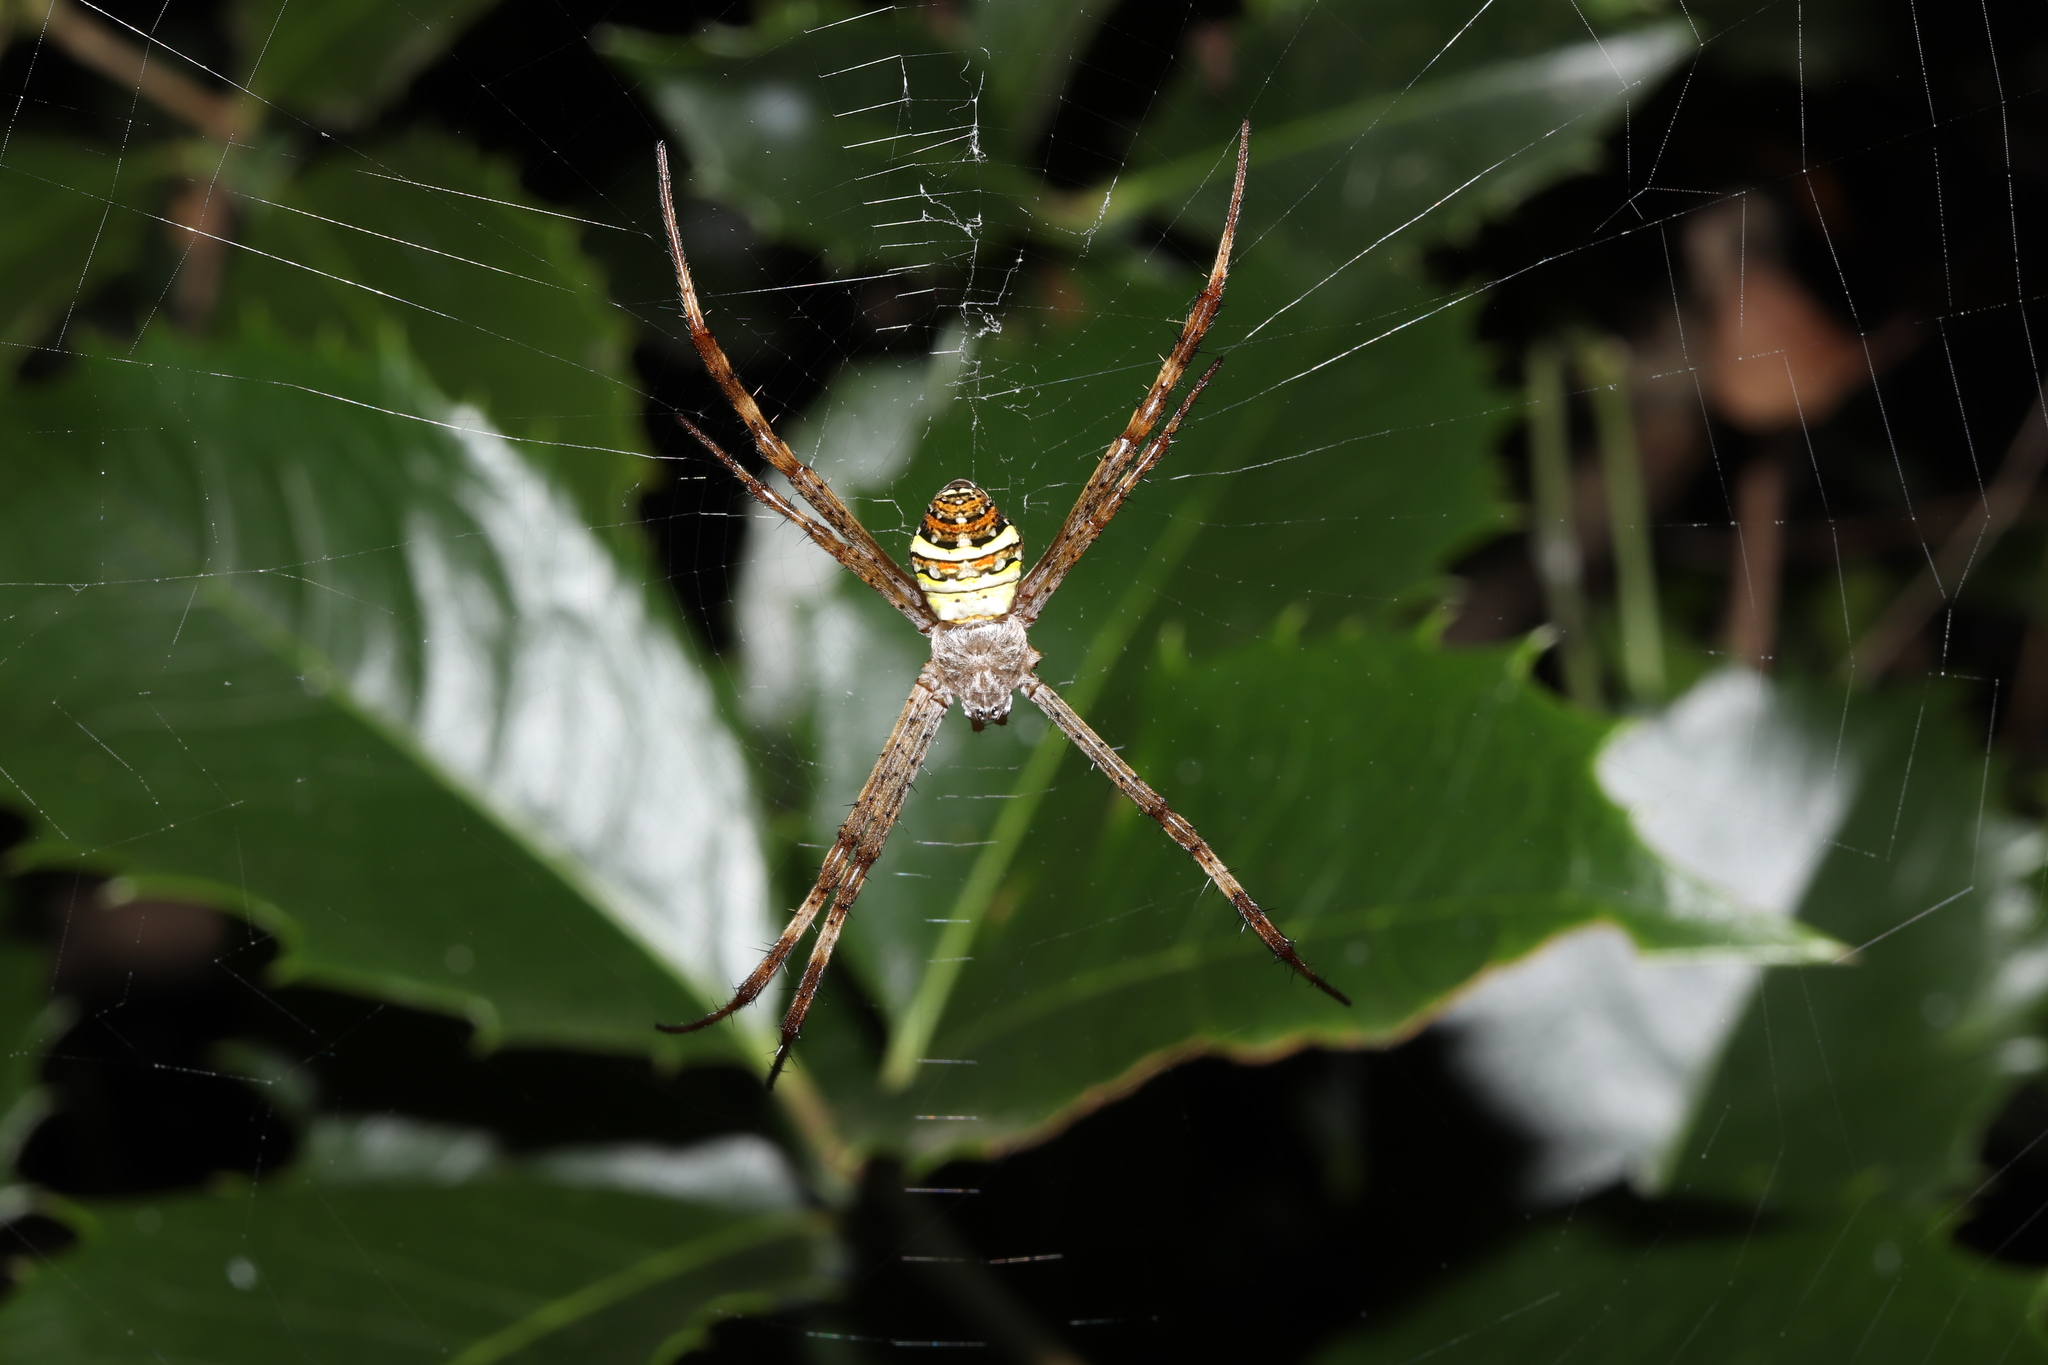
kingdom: Animalia
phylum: Arthropoda
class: Arachnida
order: Araneae
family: Araneidae
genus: Argiope
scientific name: Argiope minuta
